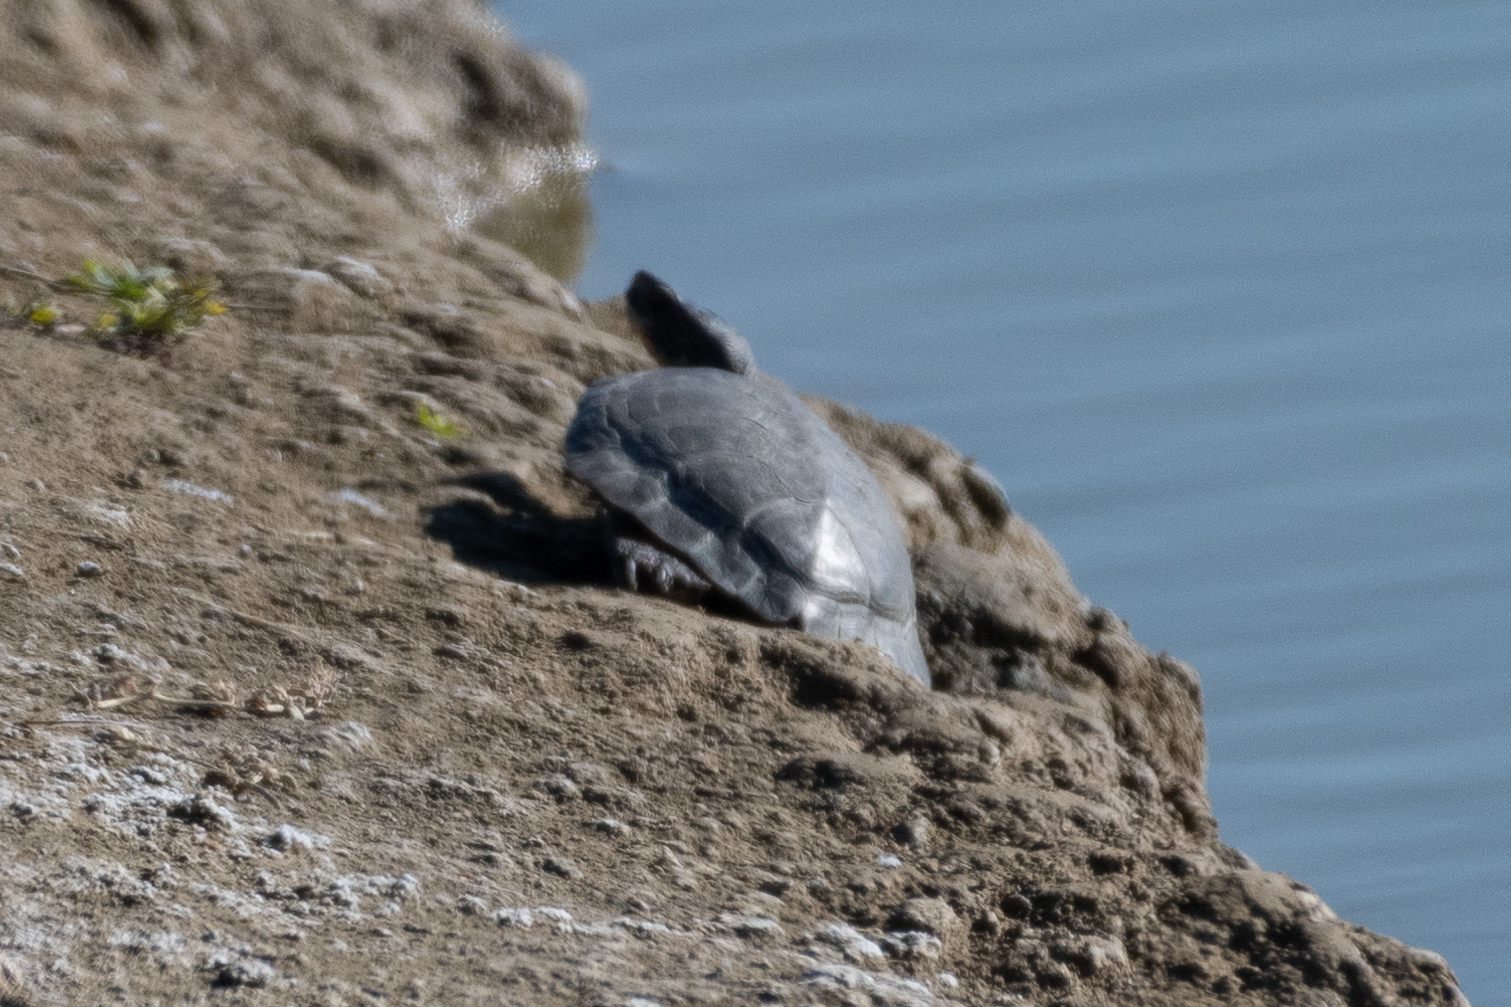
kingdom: Animalia
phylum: Chordata
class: Testudines
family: Emydidae
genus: Actinemys
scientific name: Actinemys marmorata
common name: Western pond turtle
